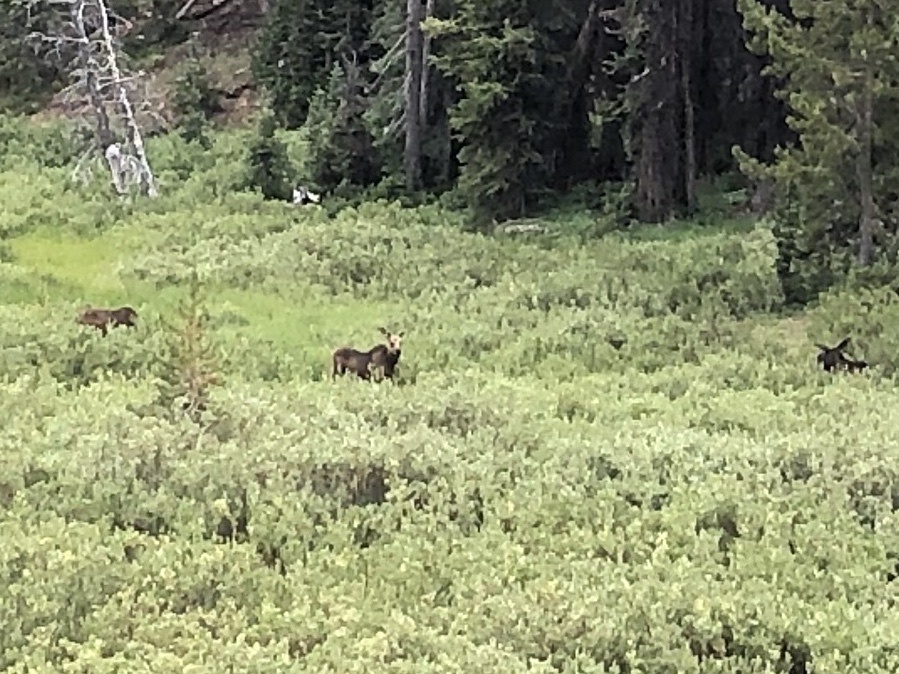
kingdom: Animalia
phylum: Chordata
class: Mammalia
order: Artiodactyla
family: Cervidae
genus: Alces
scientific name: Alces alces
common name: Moose
